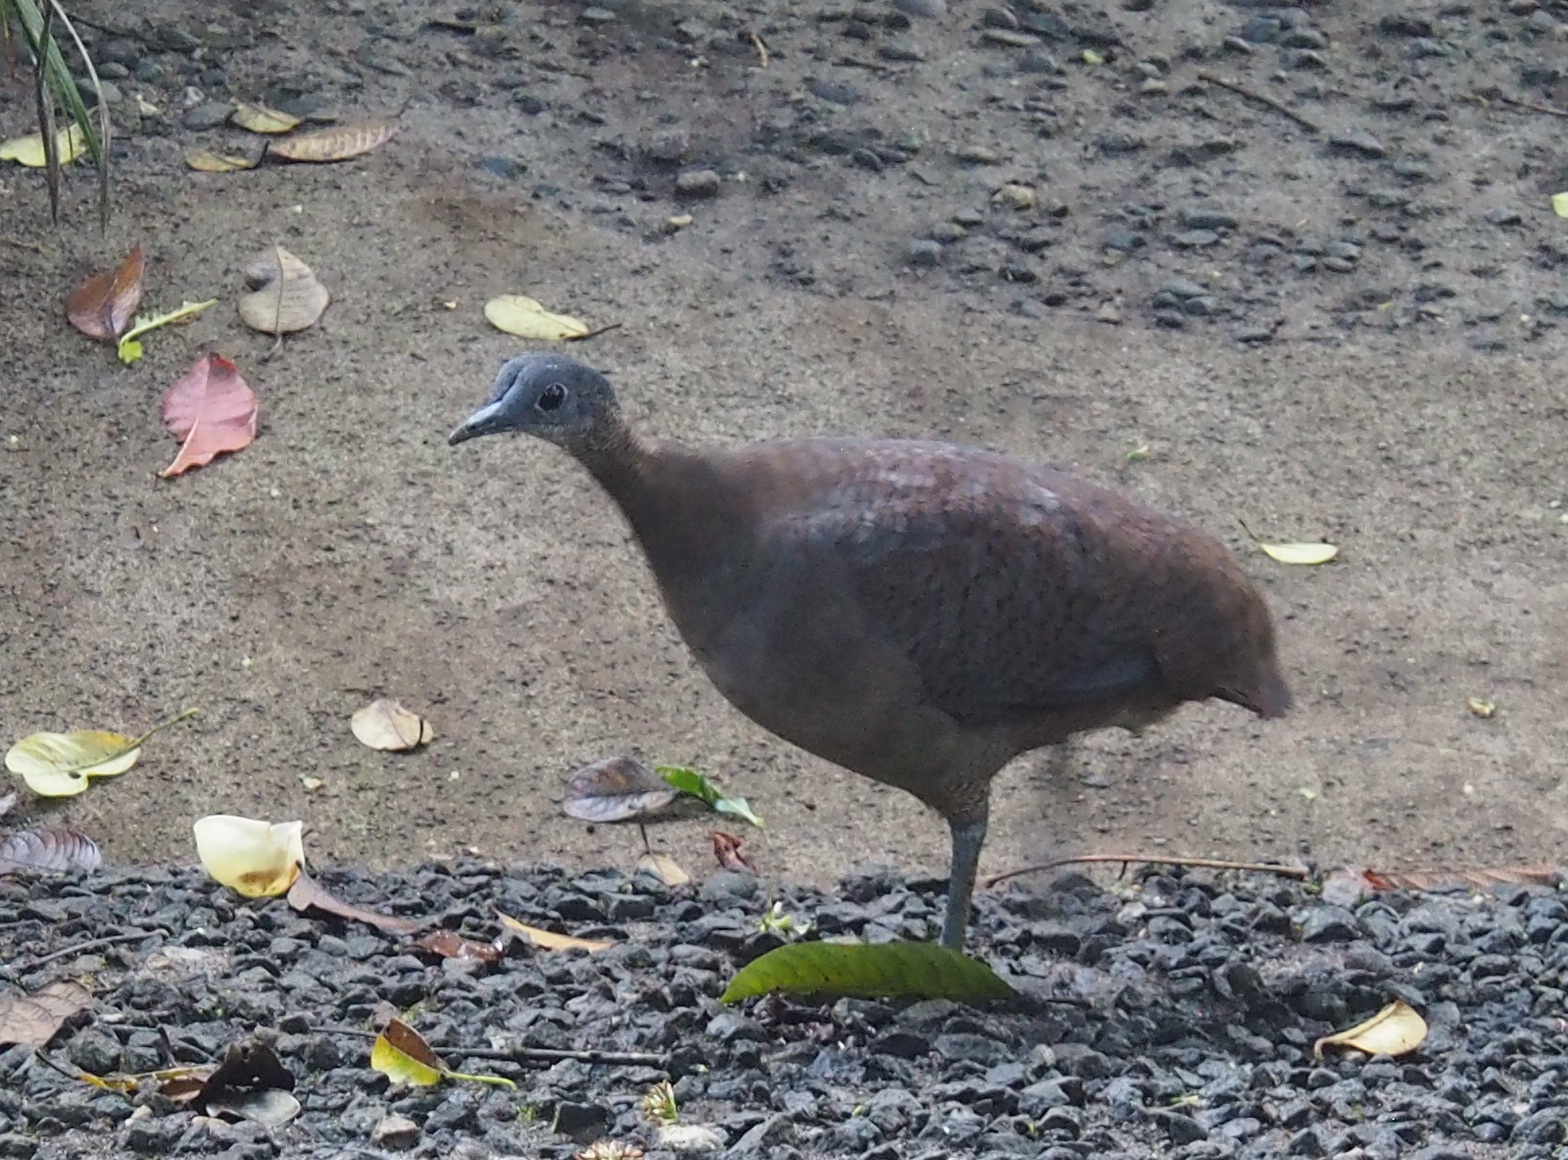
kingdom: Animalia
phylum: Chordata
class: Aves
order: Tinamiformes
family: Tinamidae
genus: Tinamus
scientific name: Tinamus major
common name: Great tinamou
